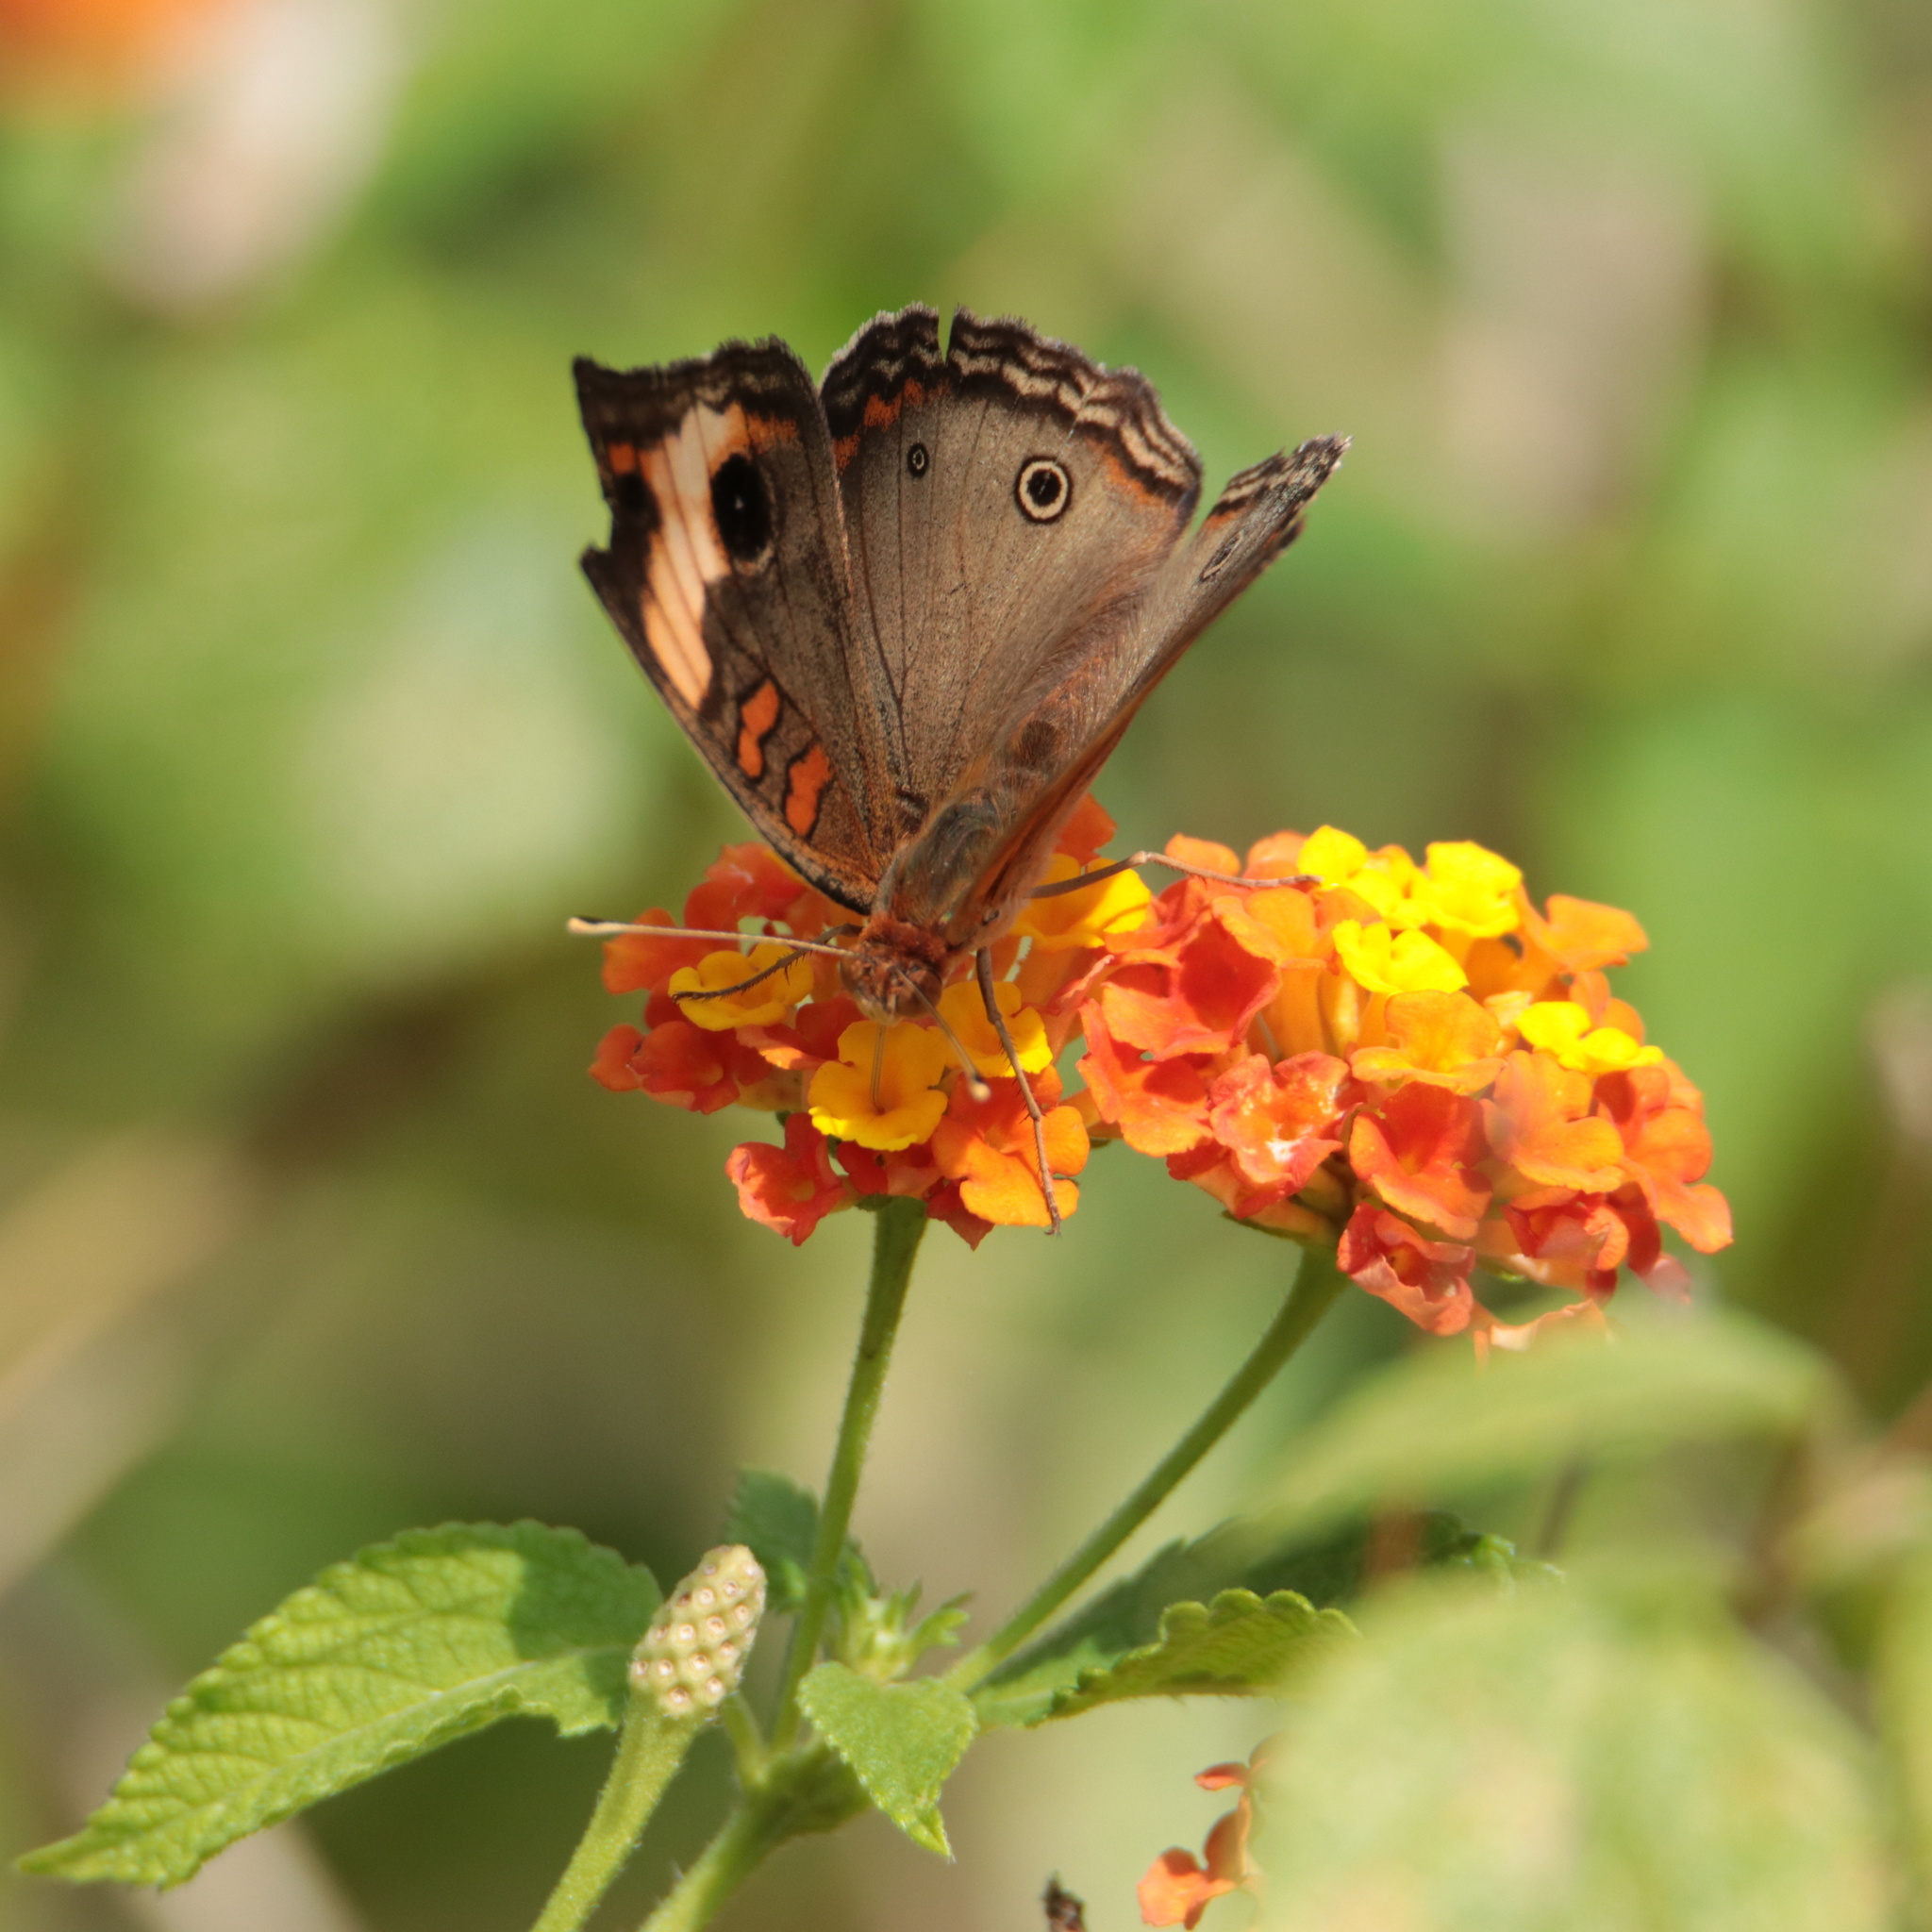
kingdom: Animalia
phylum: Arthropoda
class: Insecta
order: Lepidoptera
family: Nymphalidae
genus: Junonia
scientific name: Junonia lavinia
